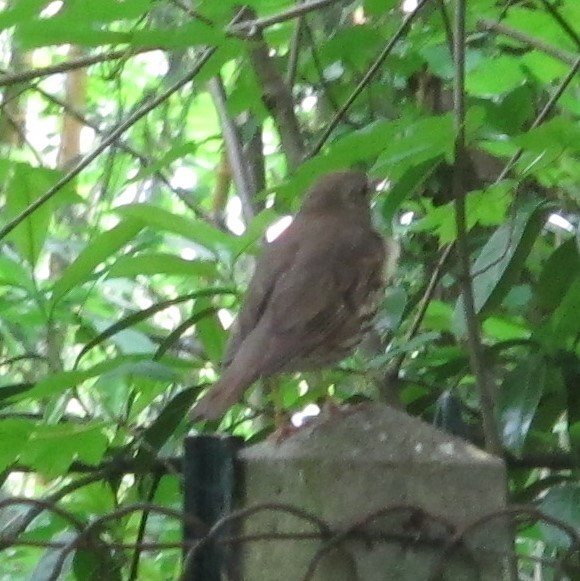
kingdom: Animalia
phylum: Chordata
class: Aves
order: Passeriformes
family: Turdidae
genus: Turdus
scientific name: Turdus philomelos
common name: Song thrush
